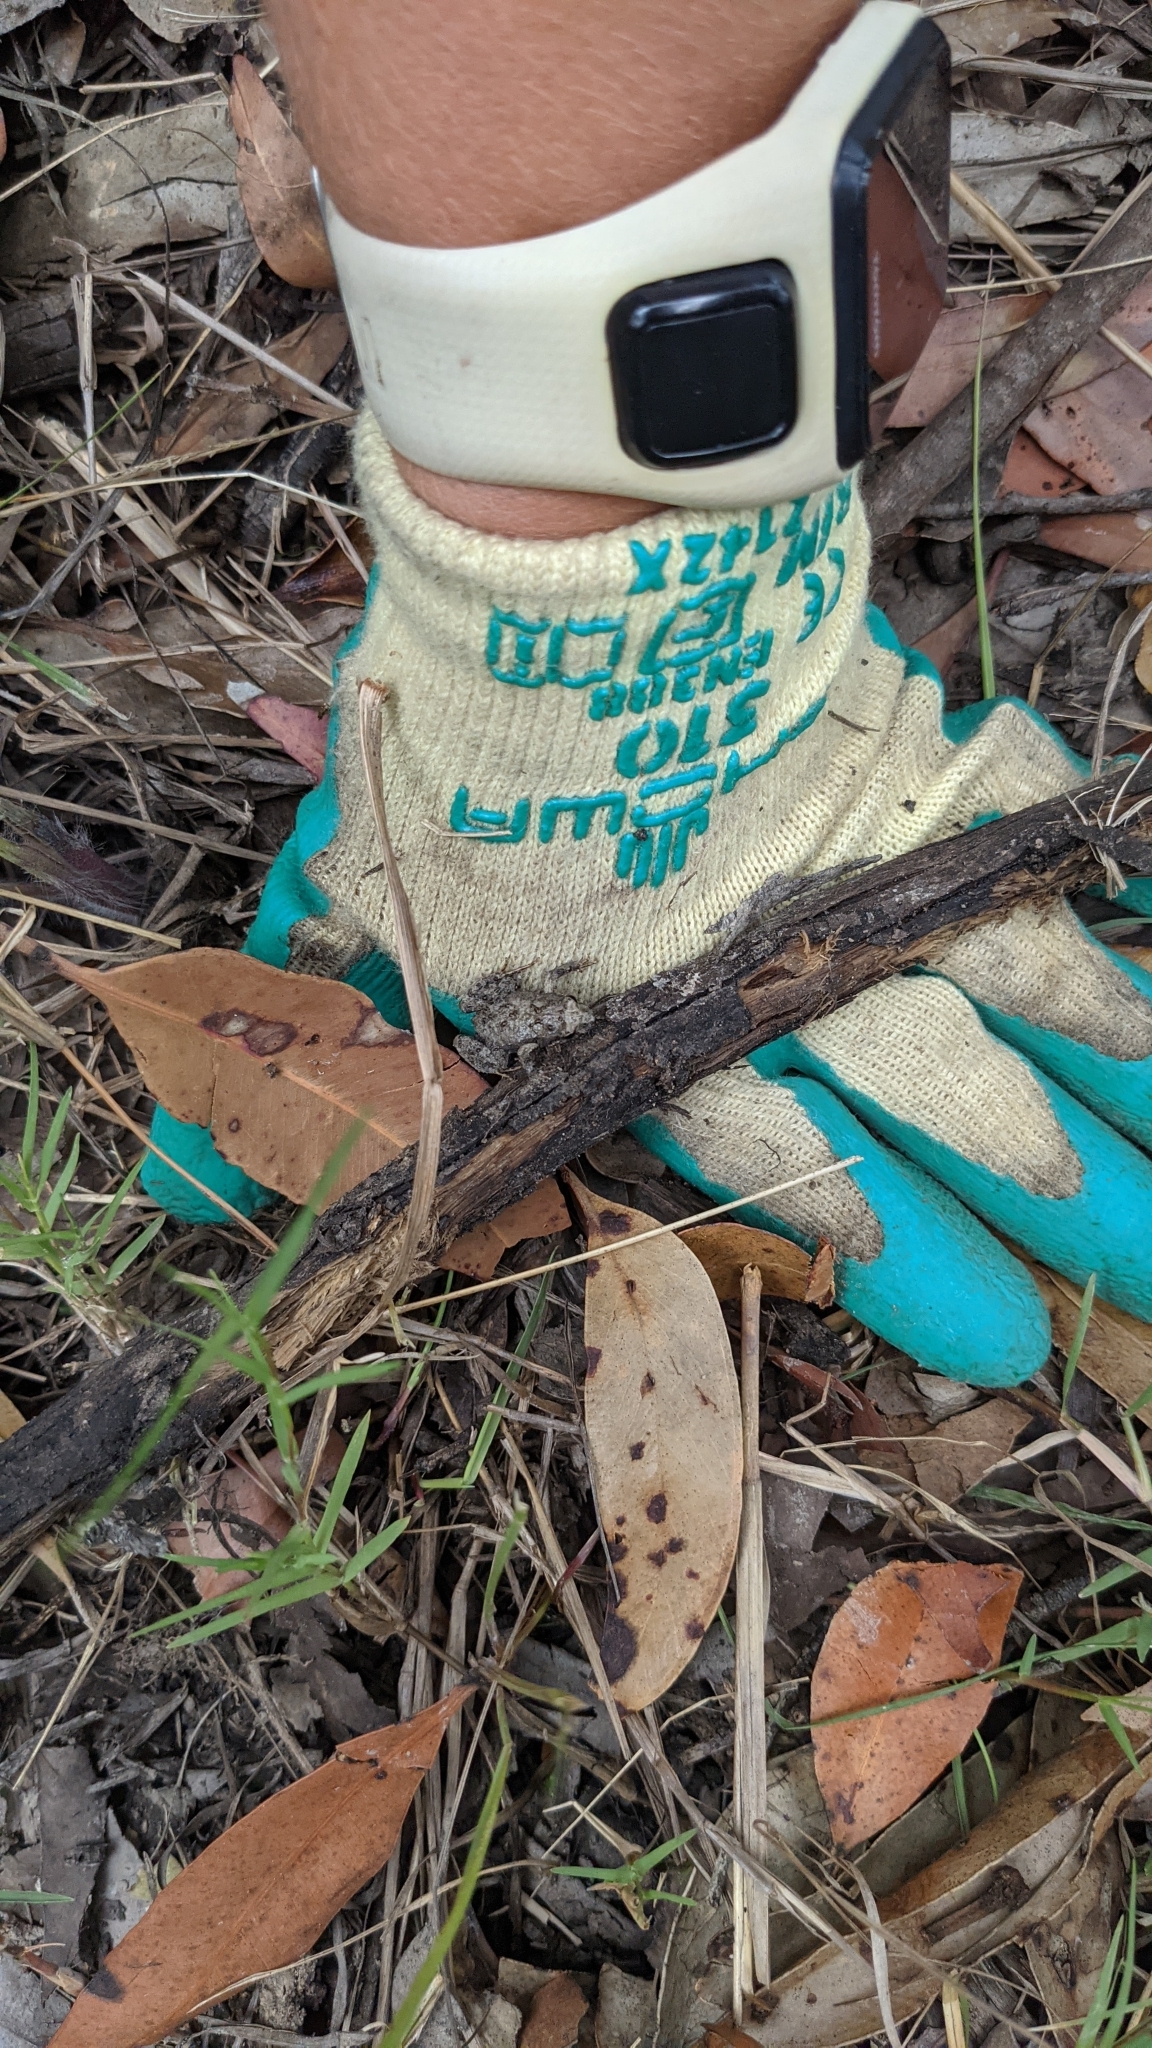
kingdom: Animalia
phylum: Chordata
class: Amphibia
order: Anura
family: Myobatrachidae
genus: Crinia
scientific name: Crinia signifera
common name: Brown froglet
